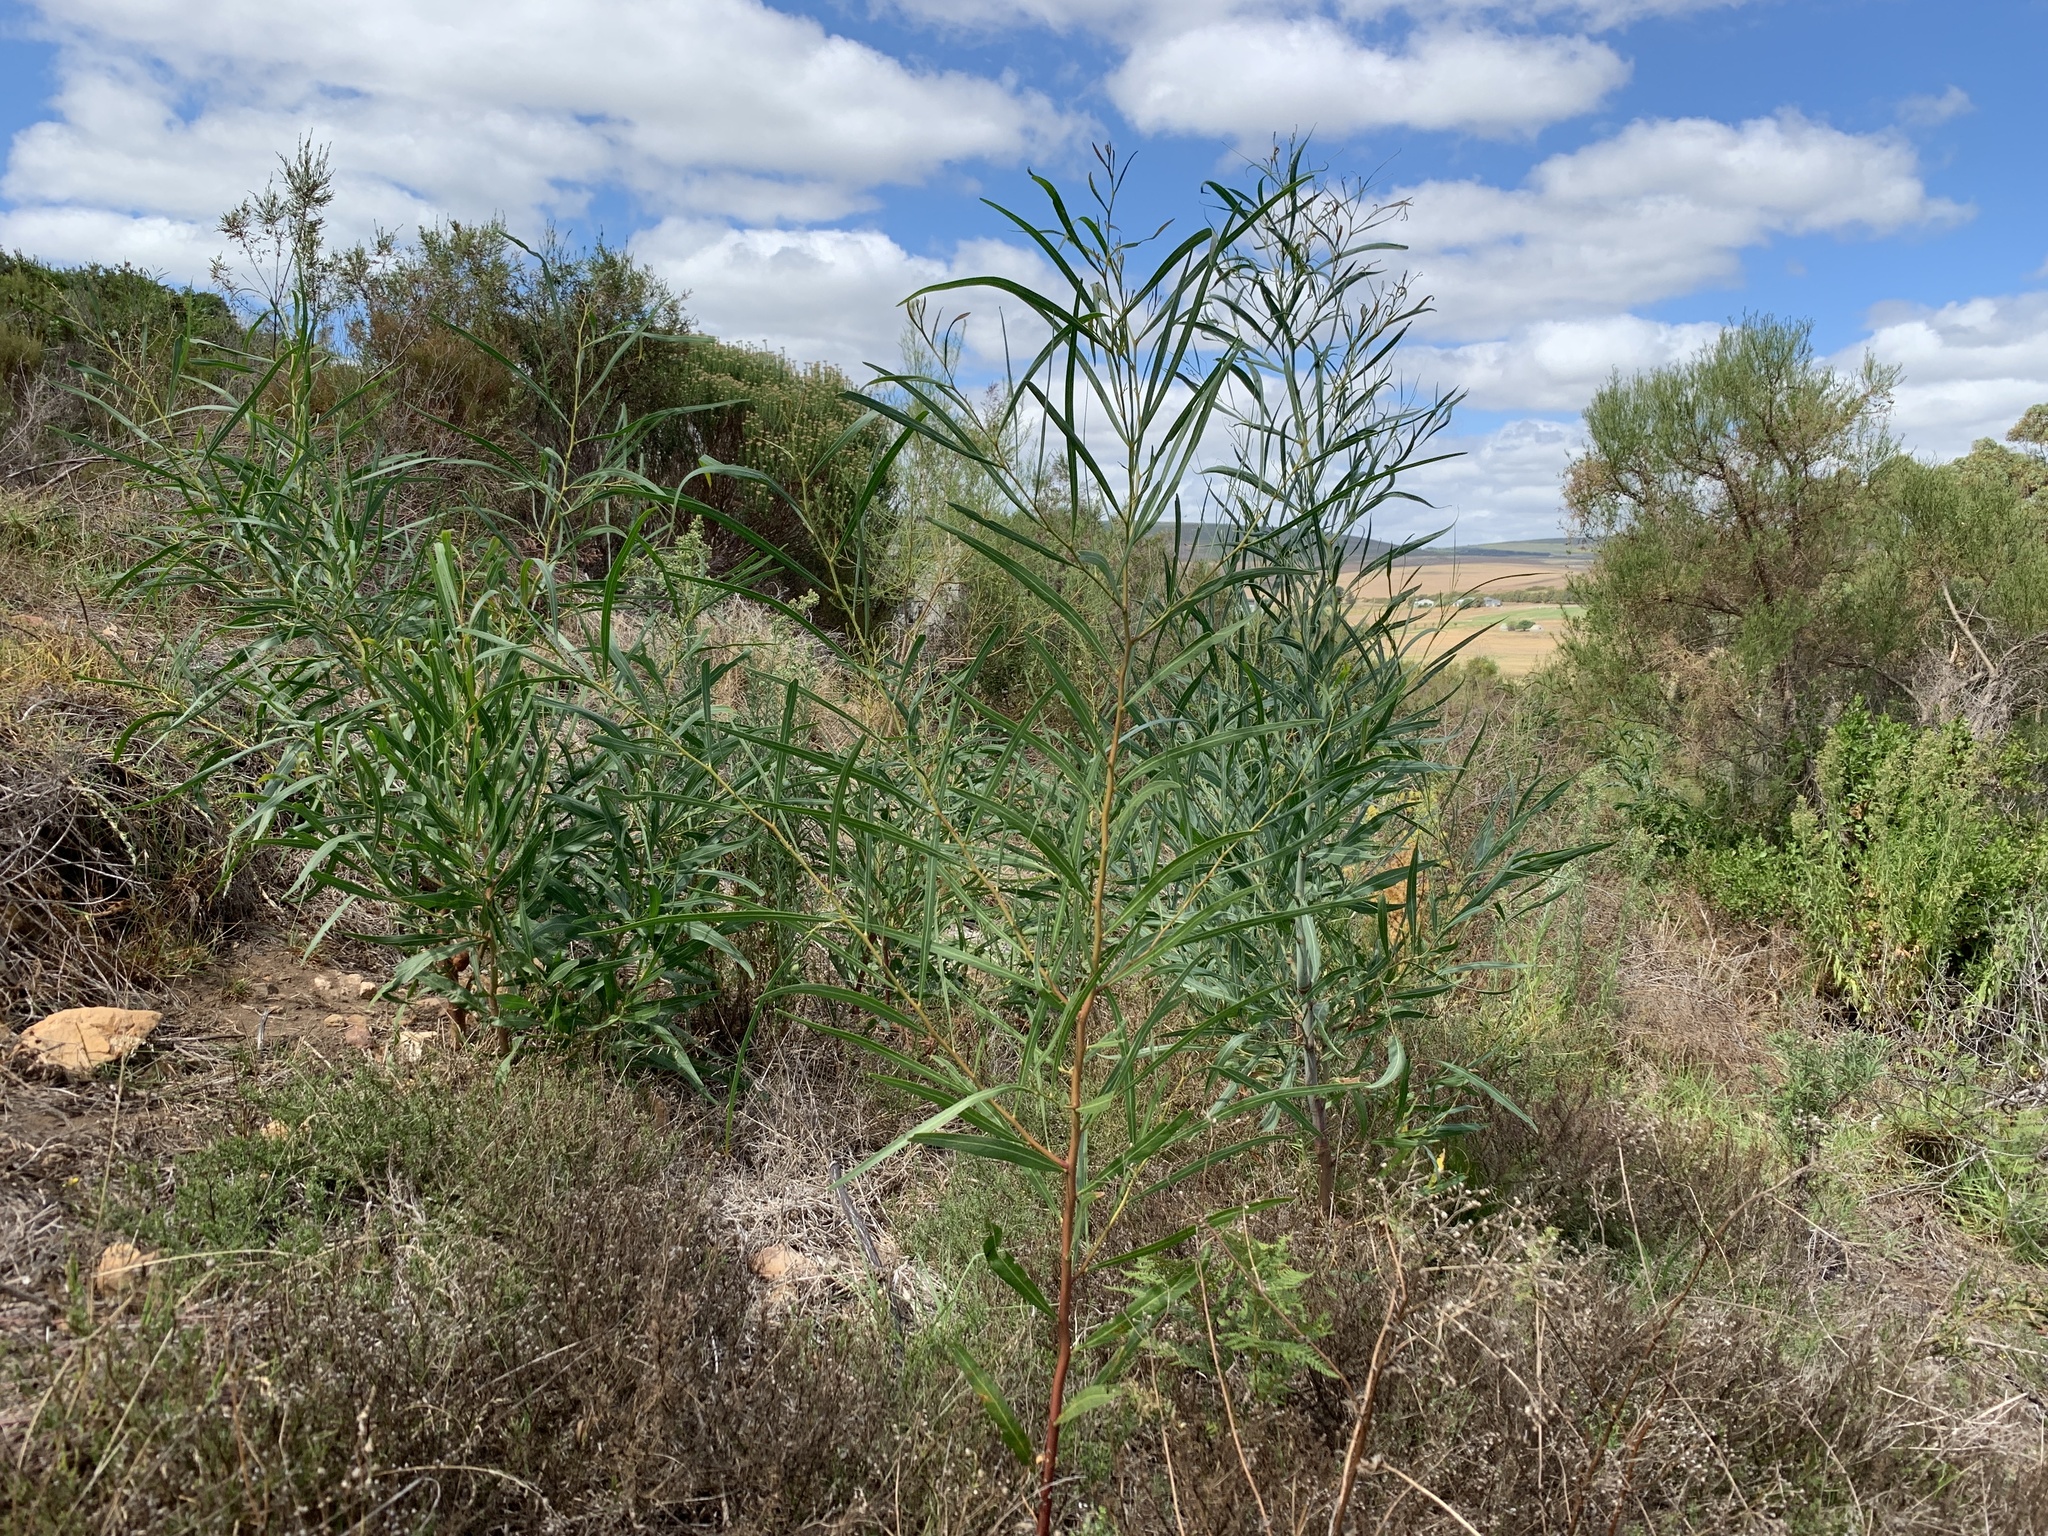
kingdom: Plantae
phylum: Tracheophyta
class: Magnoliopsida
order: Fabales
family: Fabaceae
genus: Acacia
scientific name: Acacia saligna
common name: Orange wattle
